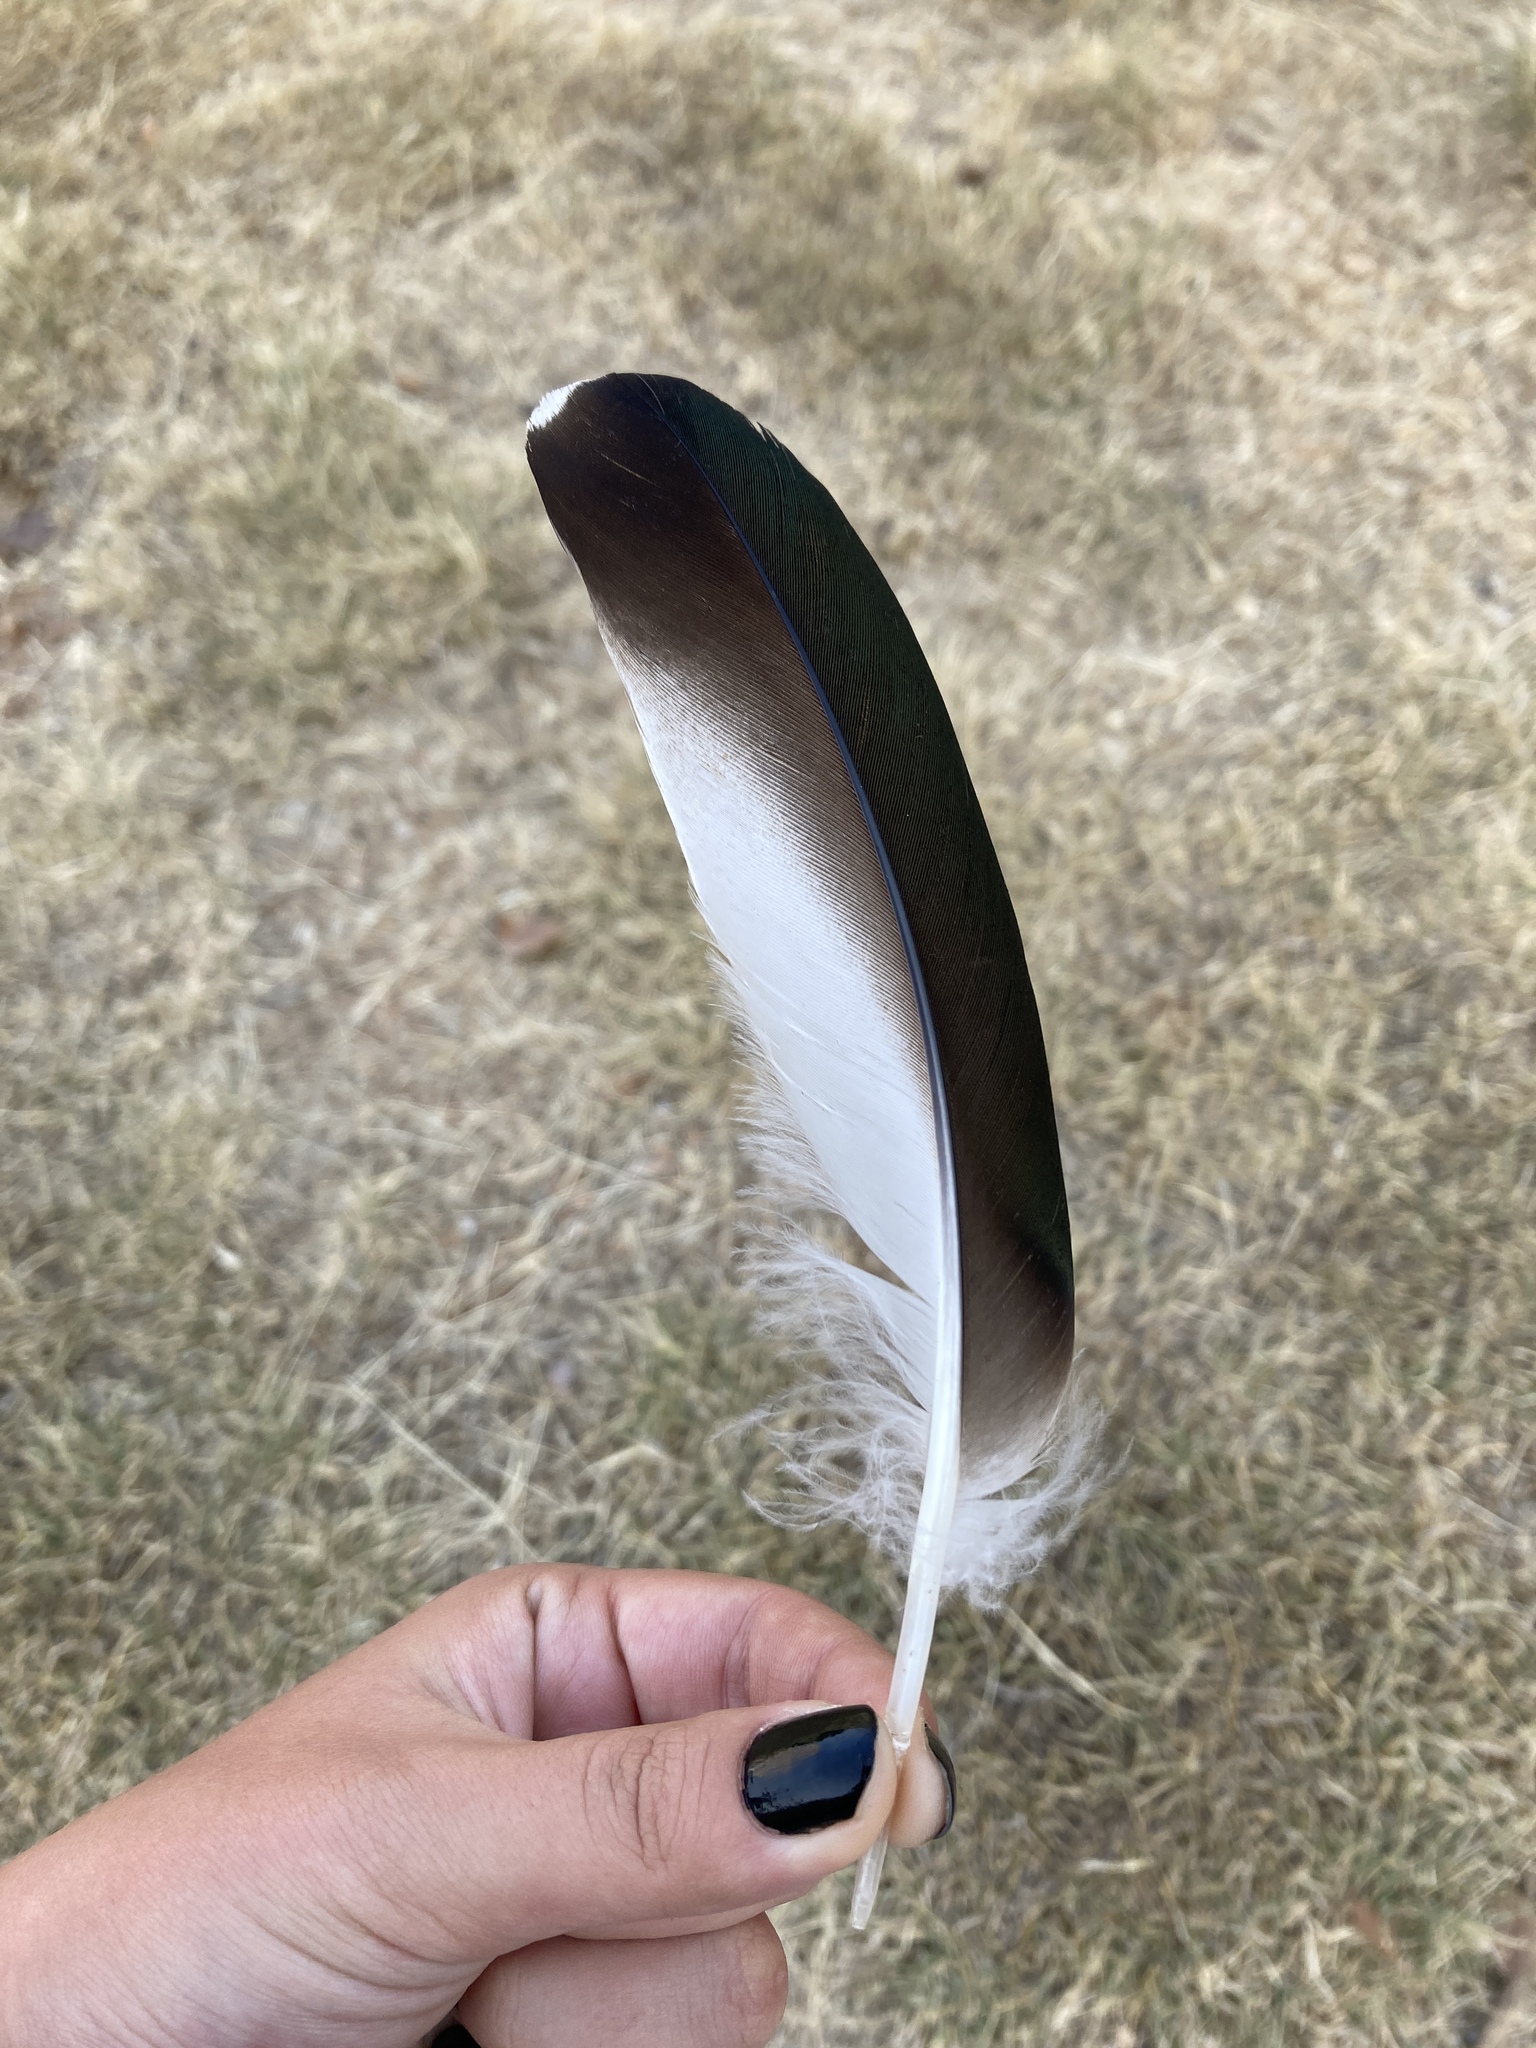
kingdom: Animalia
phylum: Chordata
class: Aves
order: Anseriformes
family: Anatidae
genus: Tadorna
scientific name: Tadorna ferruginea
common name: Ruddy shelduck
